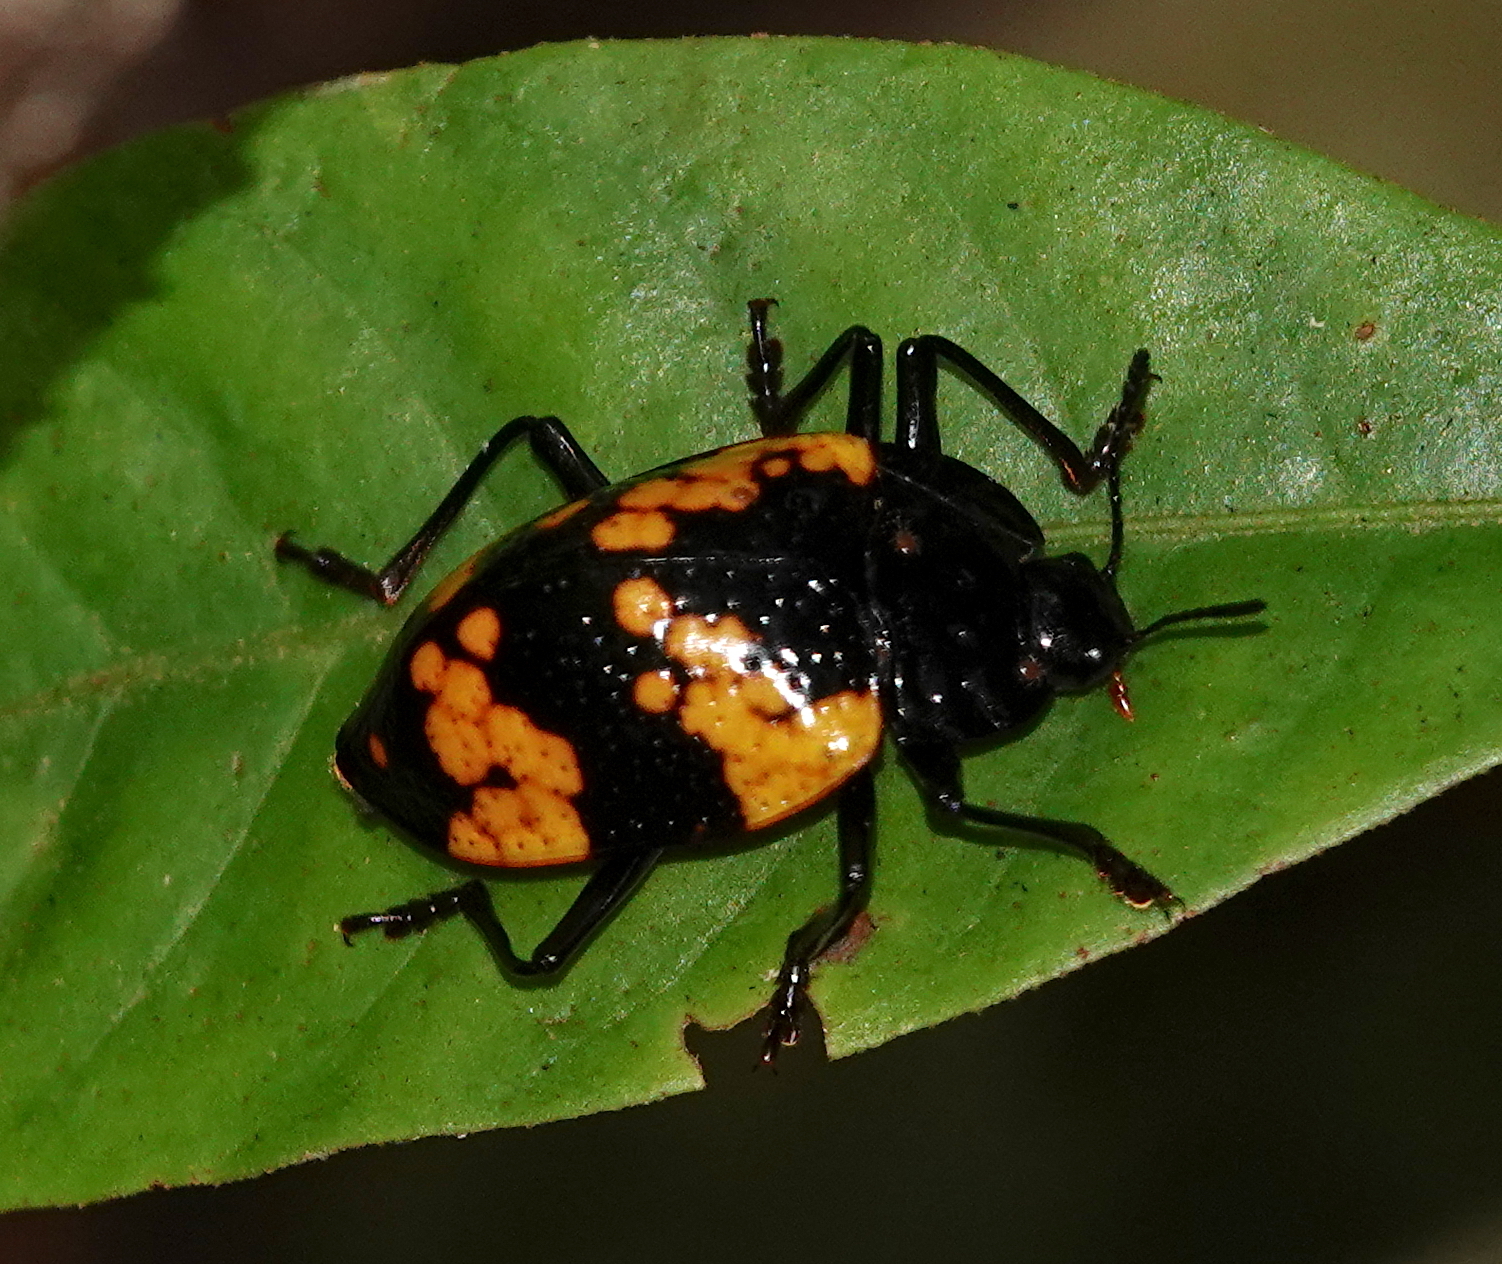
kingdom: Animalia
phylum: Arthropoda
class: Insecta
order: Coleoptera
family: Erotylidae
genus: Erotylina
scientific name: Erotylina
